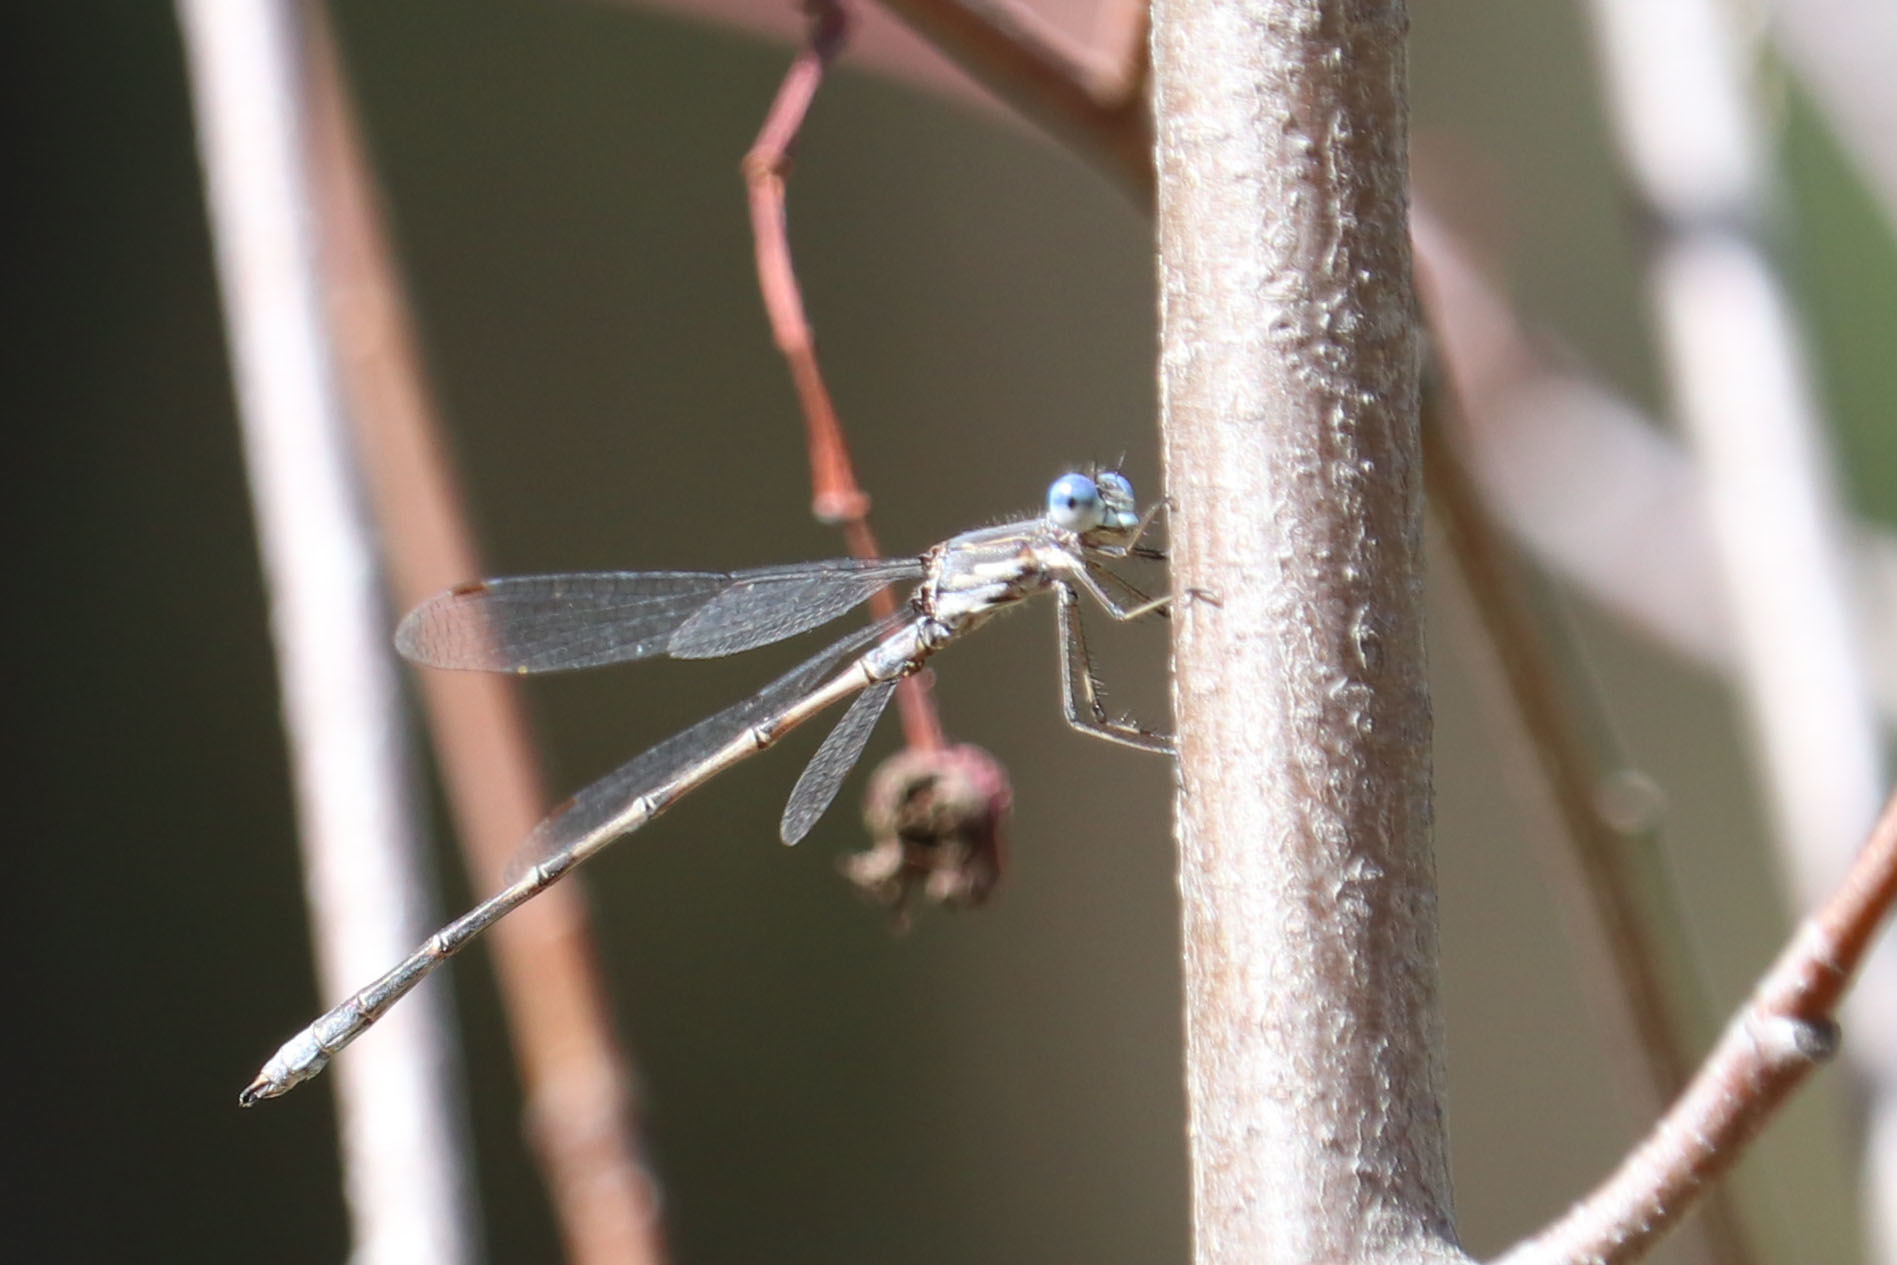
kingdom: Animalia
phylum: Arthropoda
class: Insecta
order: Odonata
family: Lestidae
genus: Lestes
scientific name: Lestes congener
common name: Spotted spreadwing
